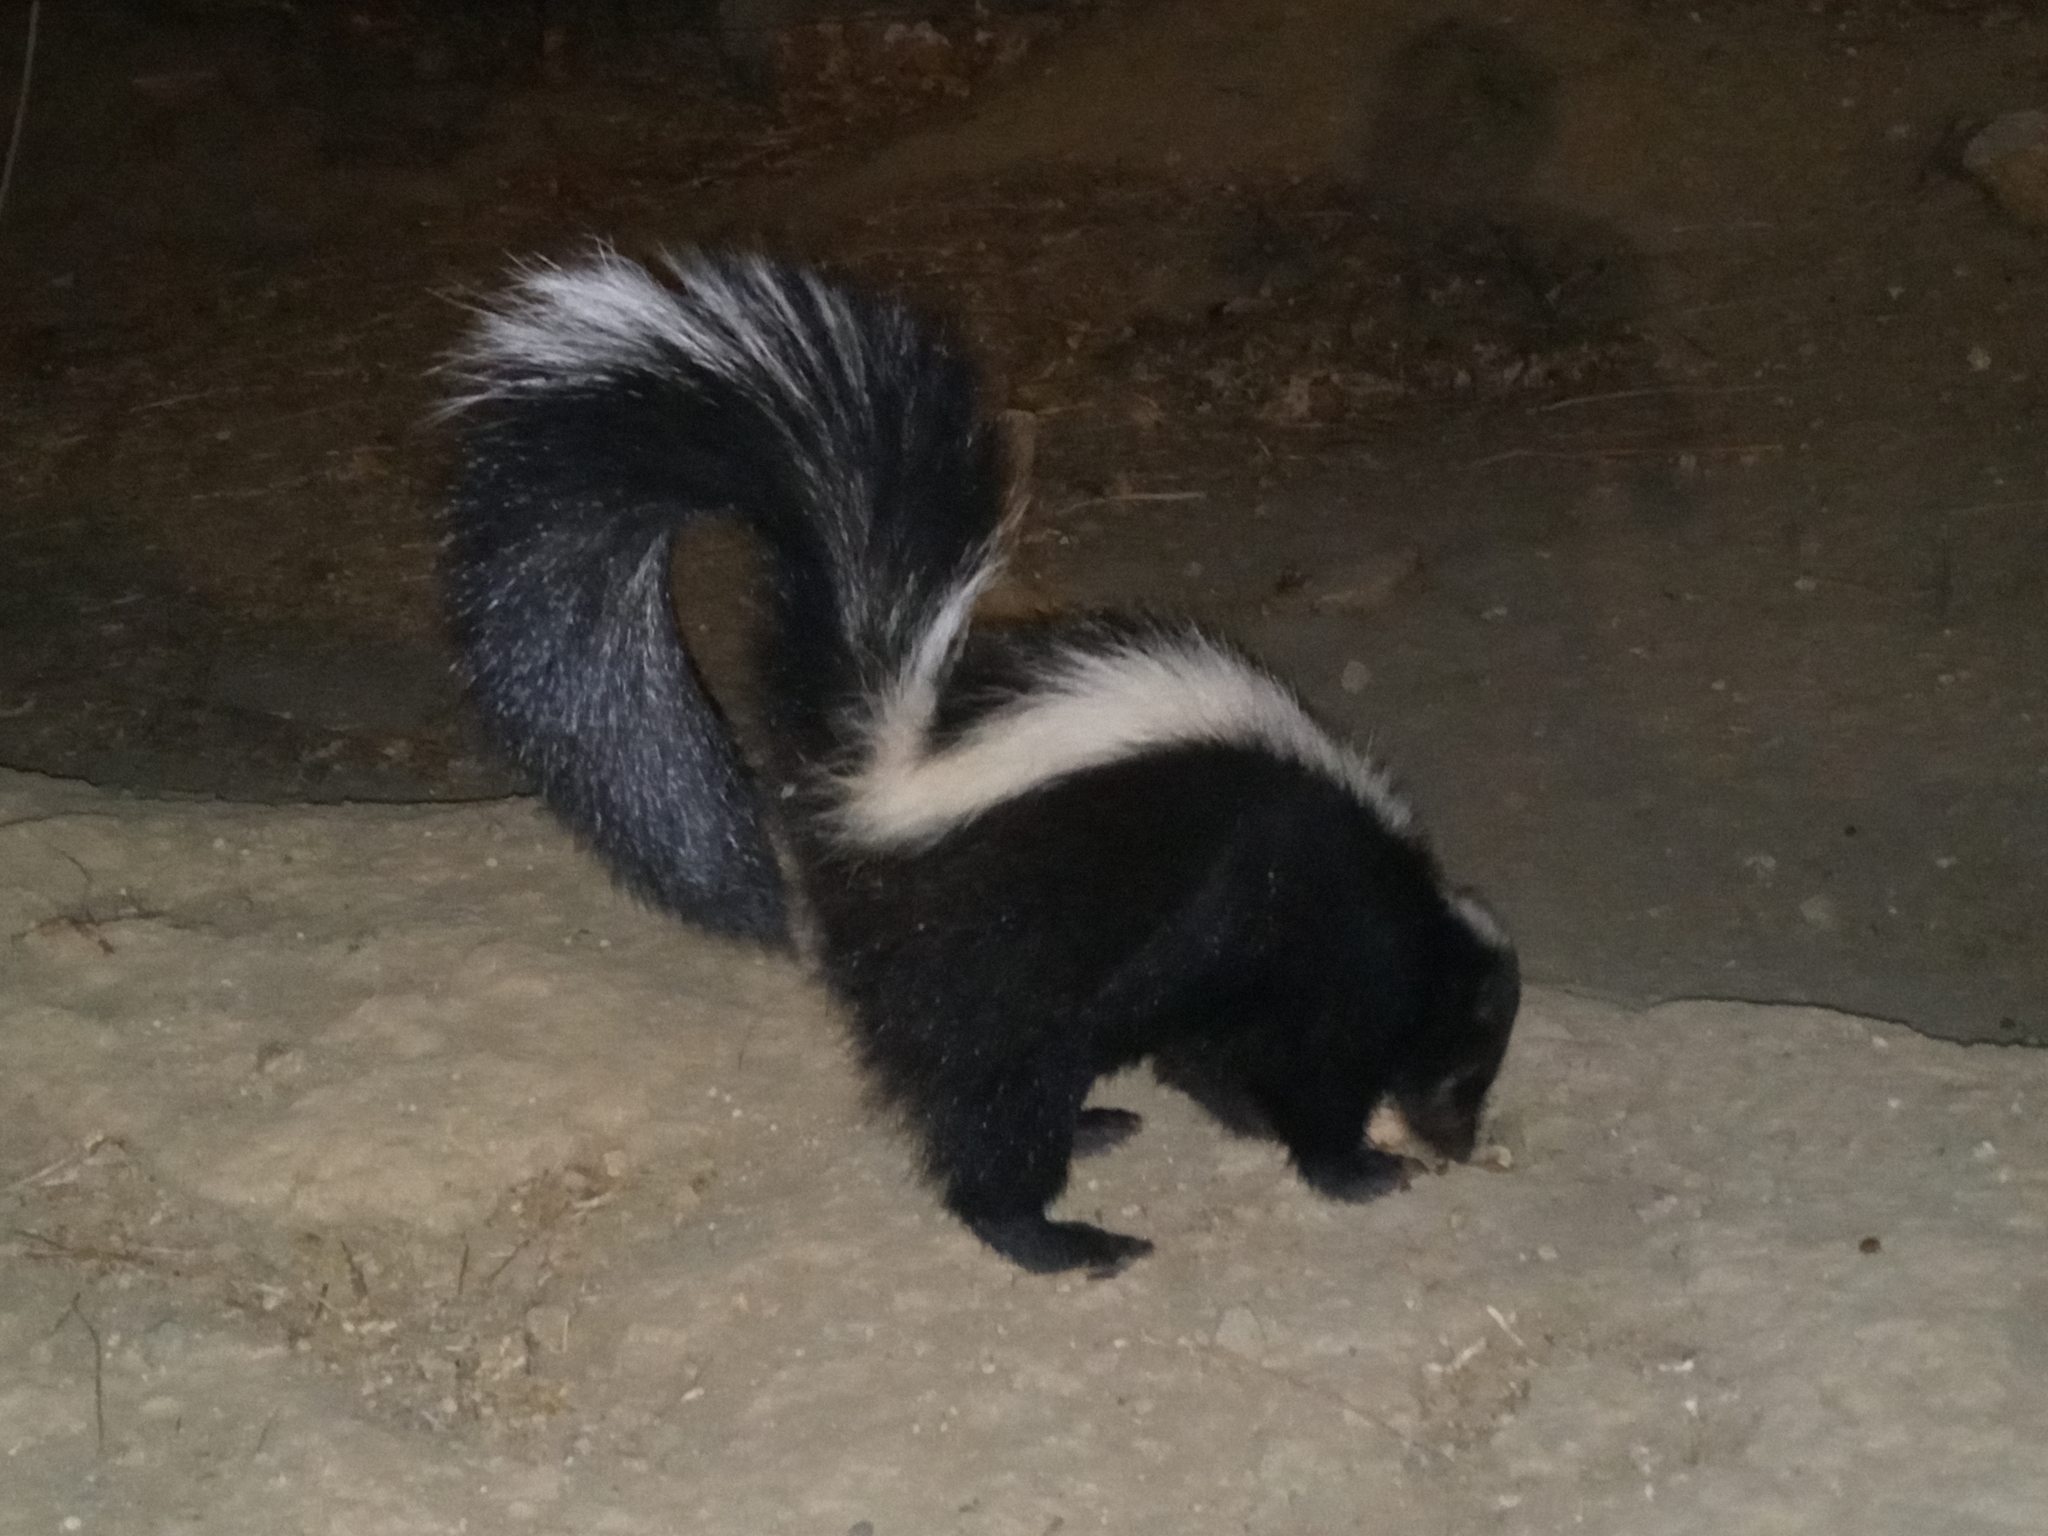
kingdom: Animalia
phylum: Chordata
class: Mammalia
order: Carnivora
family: Mephitidae
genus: Mephitis
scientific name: Mephitis mephitis
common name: Striped skunk
